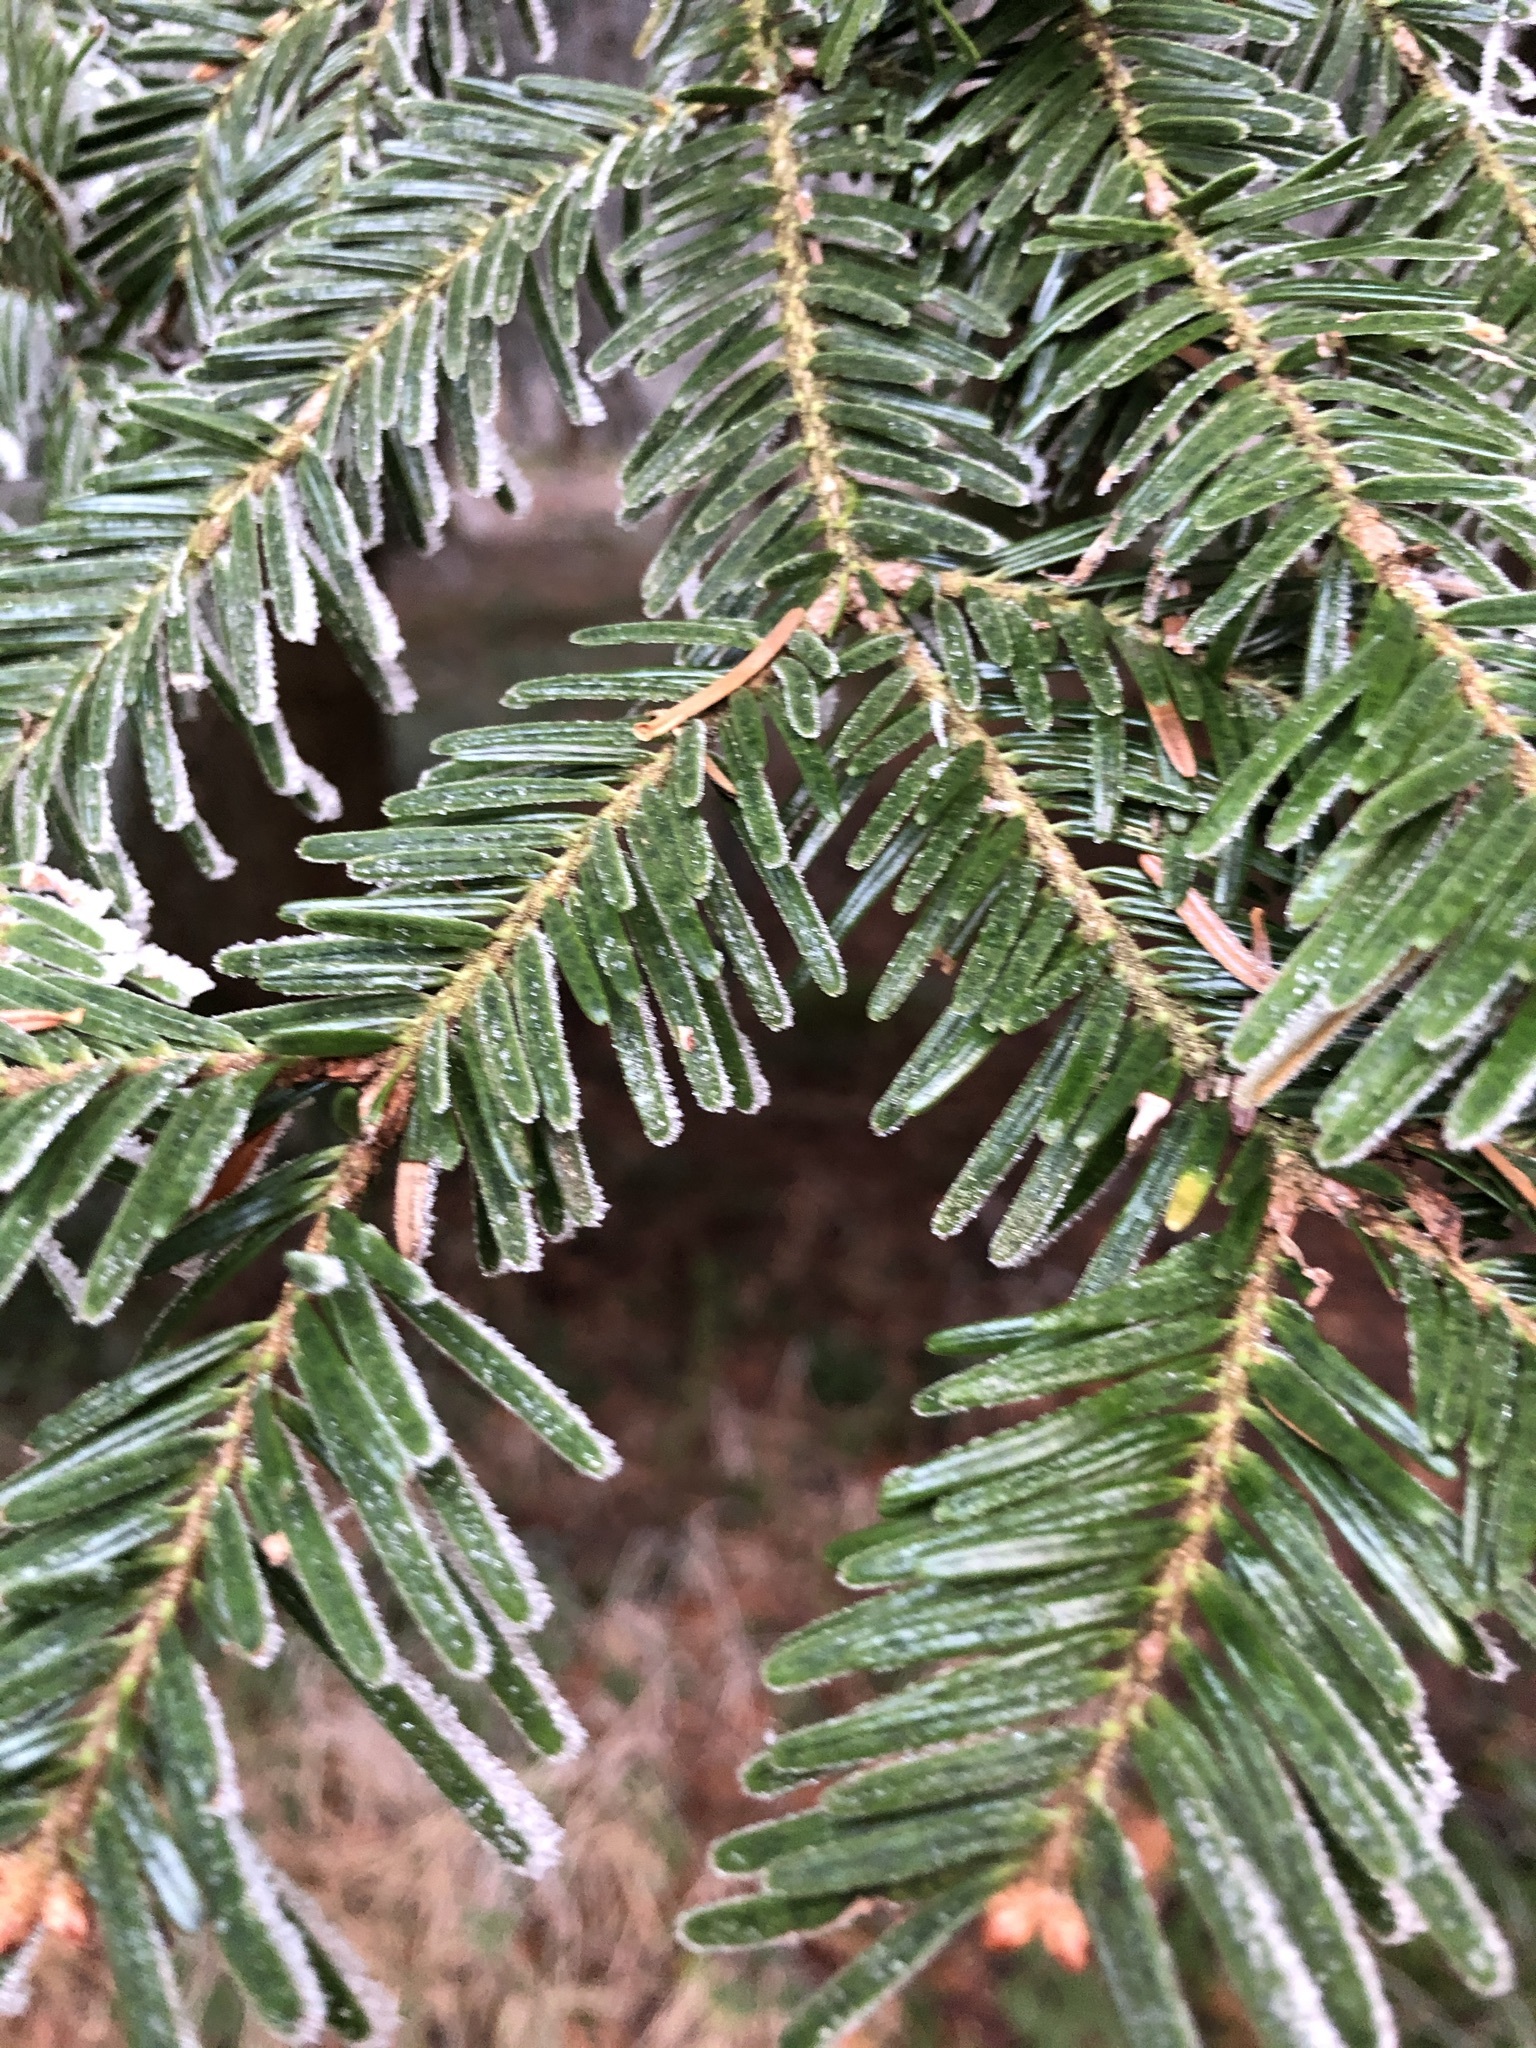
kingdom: Plantae
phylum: Tracheophyta
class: Pinopsida
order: Pinales
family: Pinaceae
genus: Abies
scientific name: Abies alba
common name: Silver fir
